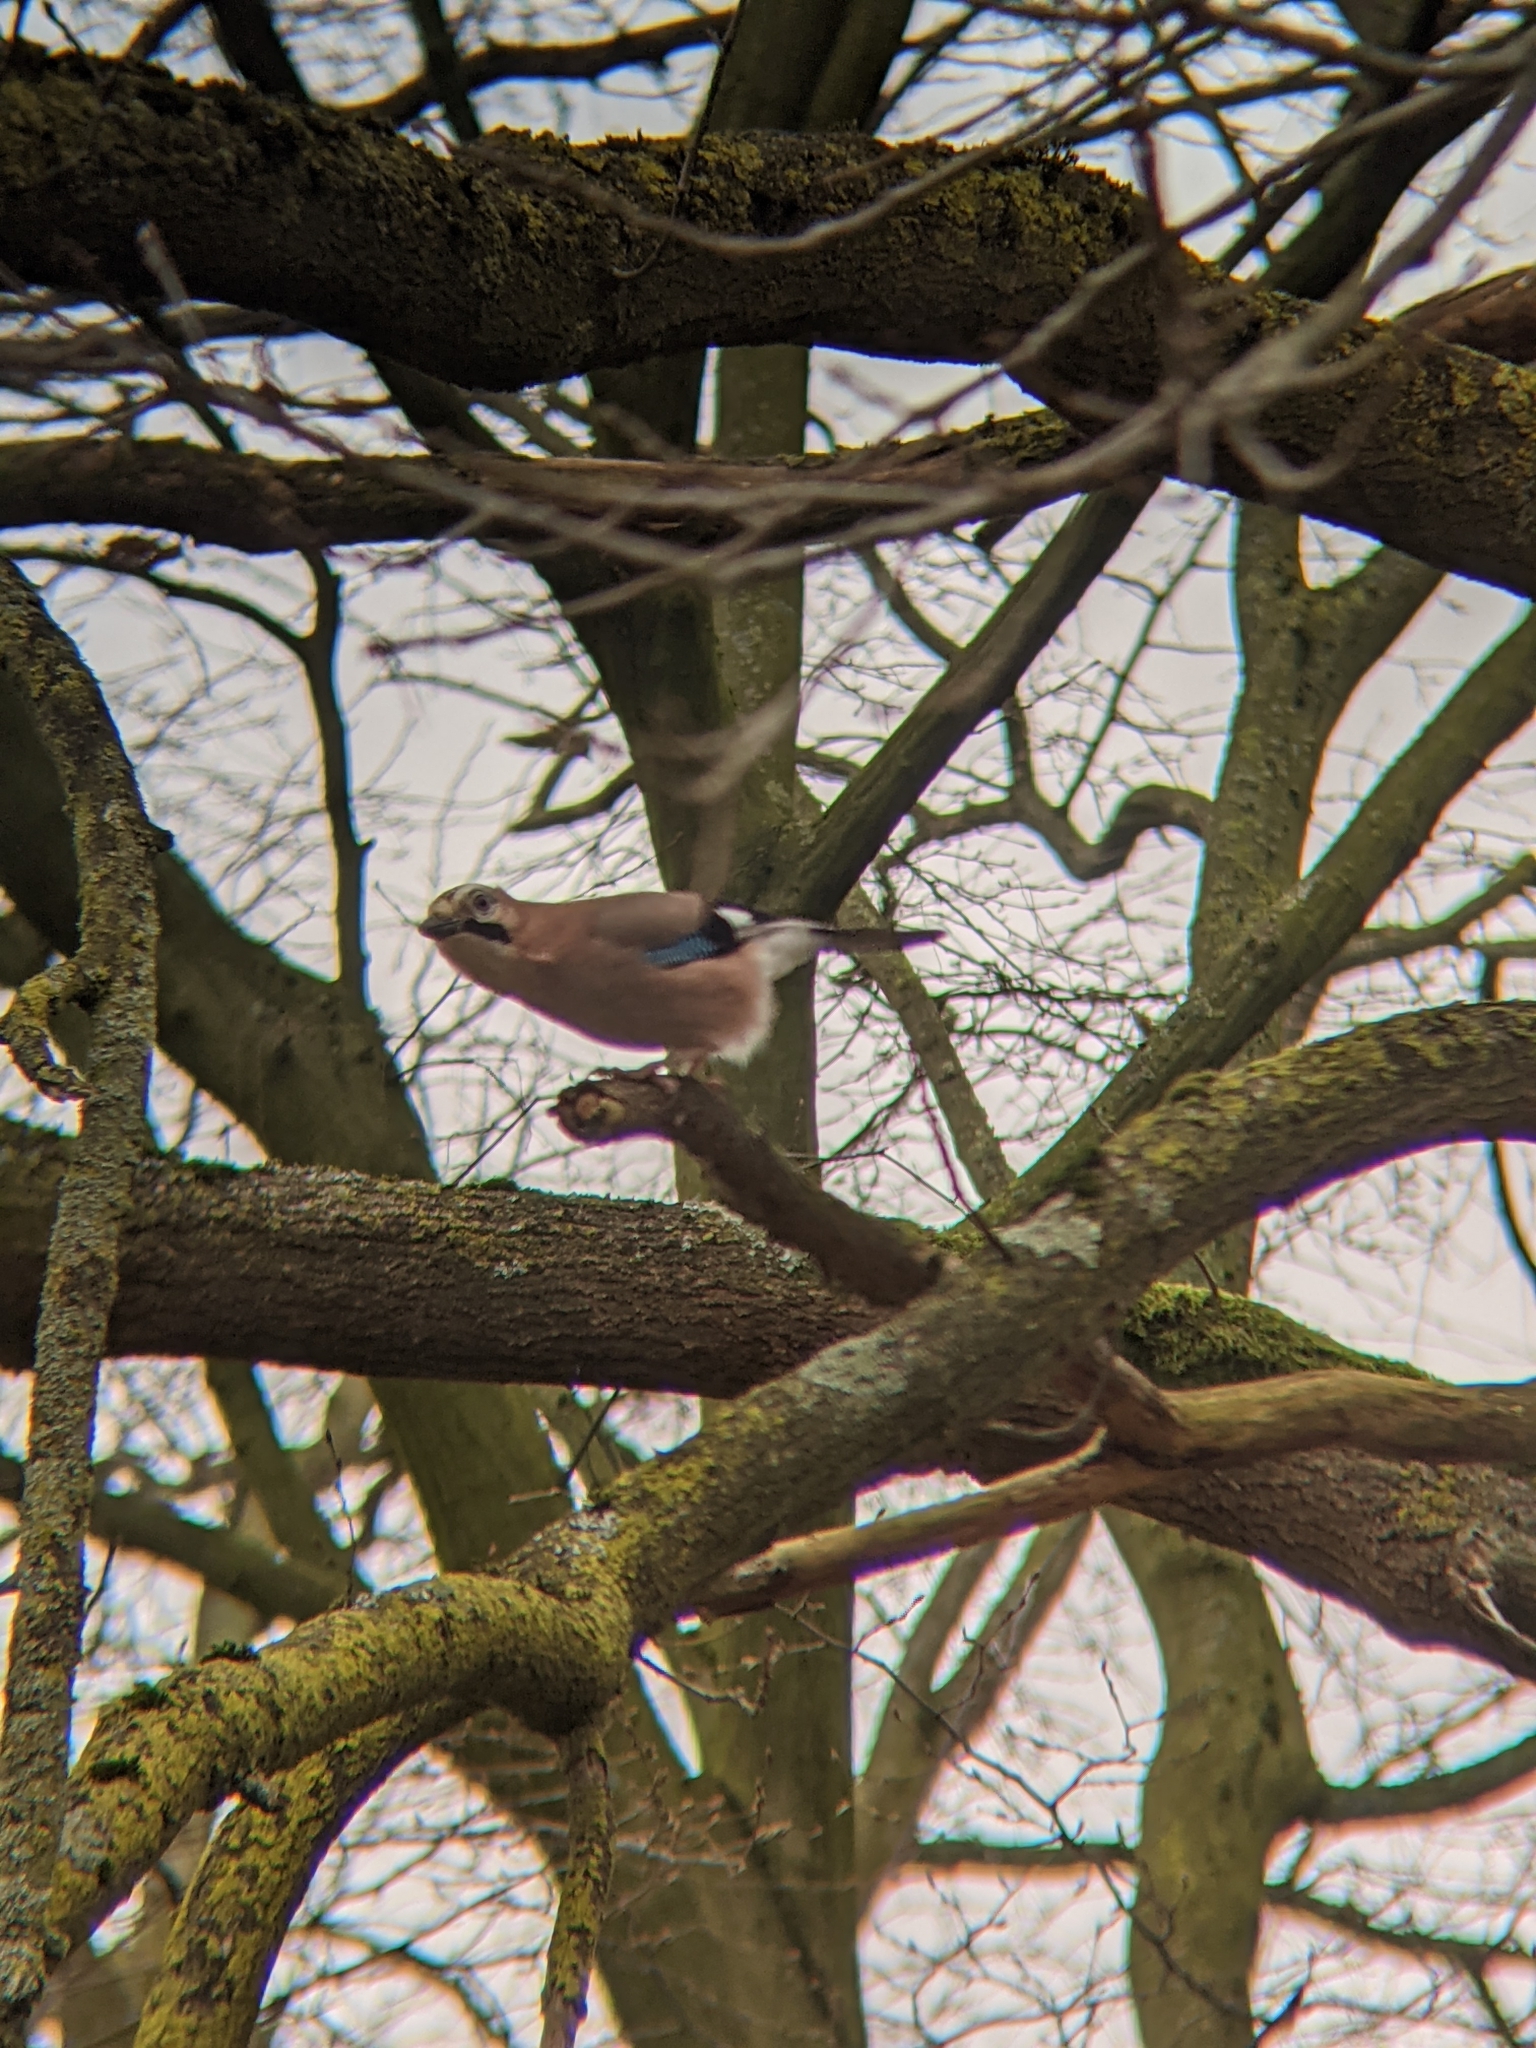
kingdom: Animalia
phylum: Chordata
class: Aves
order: Passeriformes
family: Corvidae
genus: Garrulus
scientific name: Garrulus glandarius
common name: Eurasian jay
